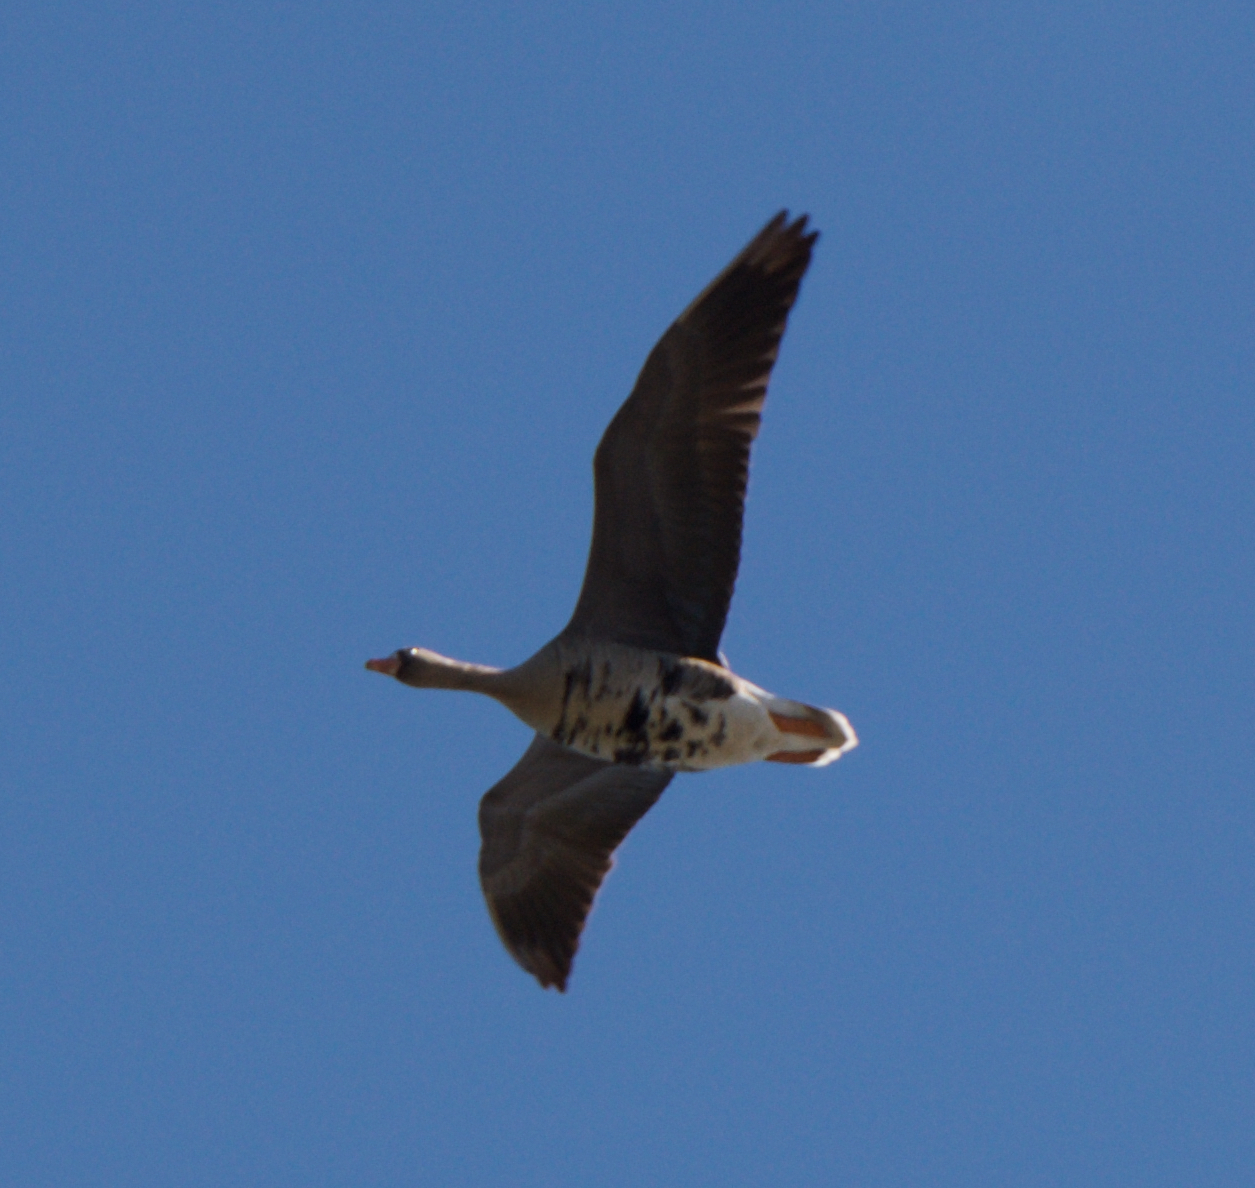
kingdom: Animalia
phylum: Chordata
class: Aves
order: Anseriformes
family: Anatidae
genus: Anser
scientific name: Anser albifrons
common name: Greater white-fronted goose
